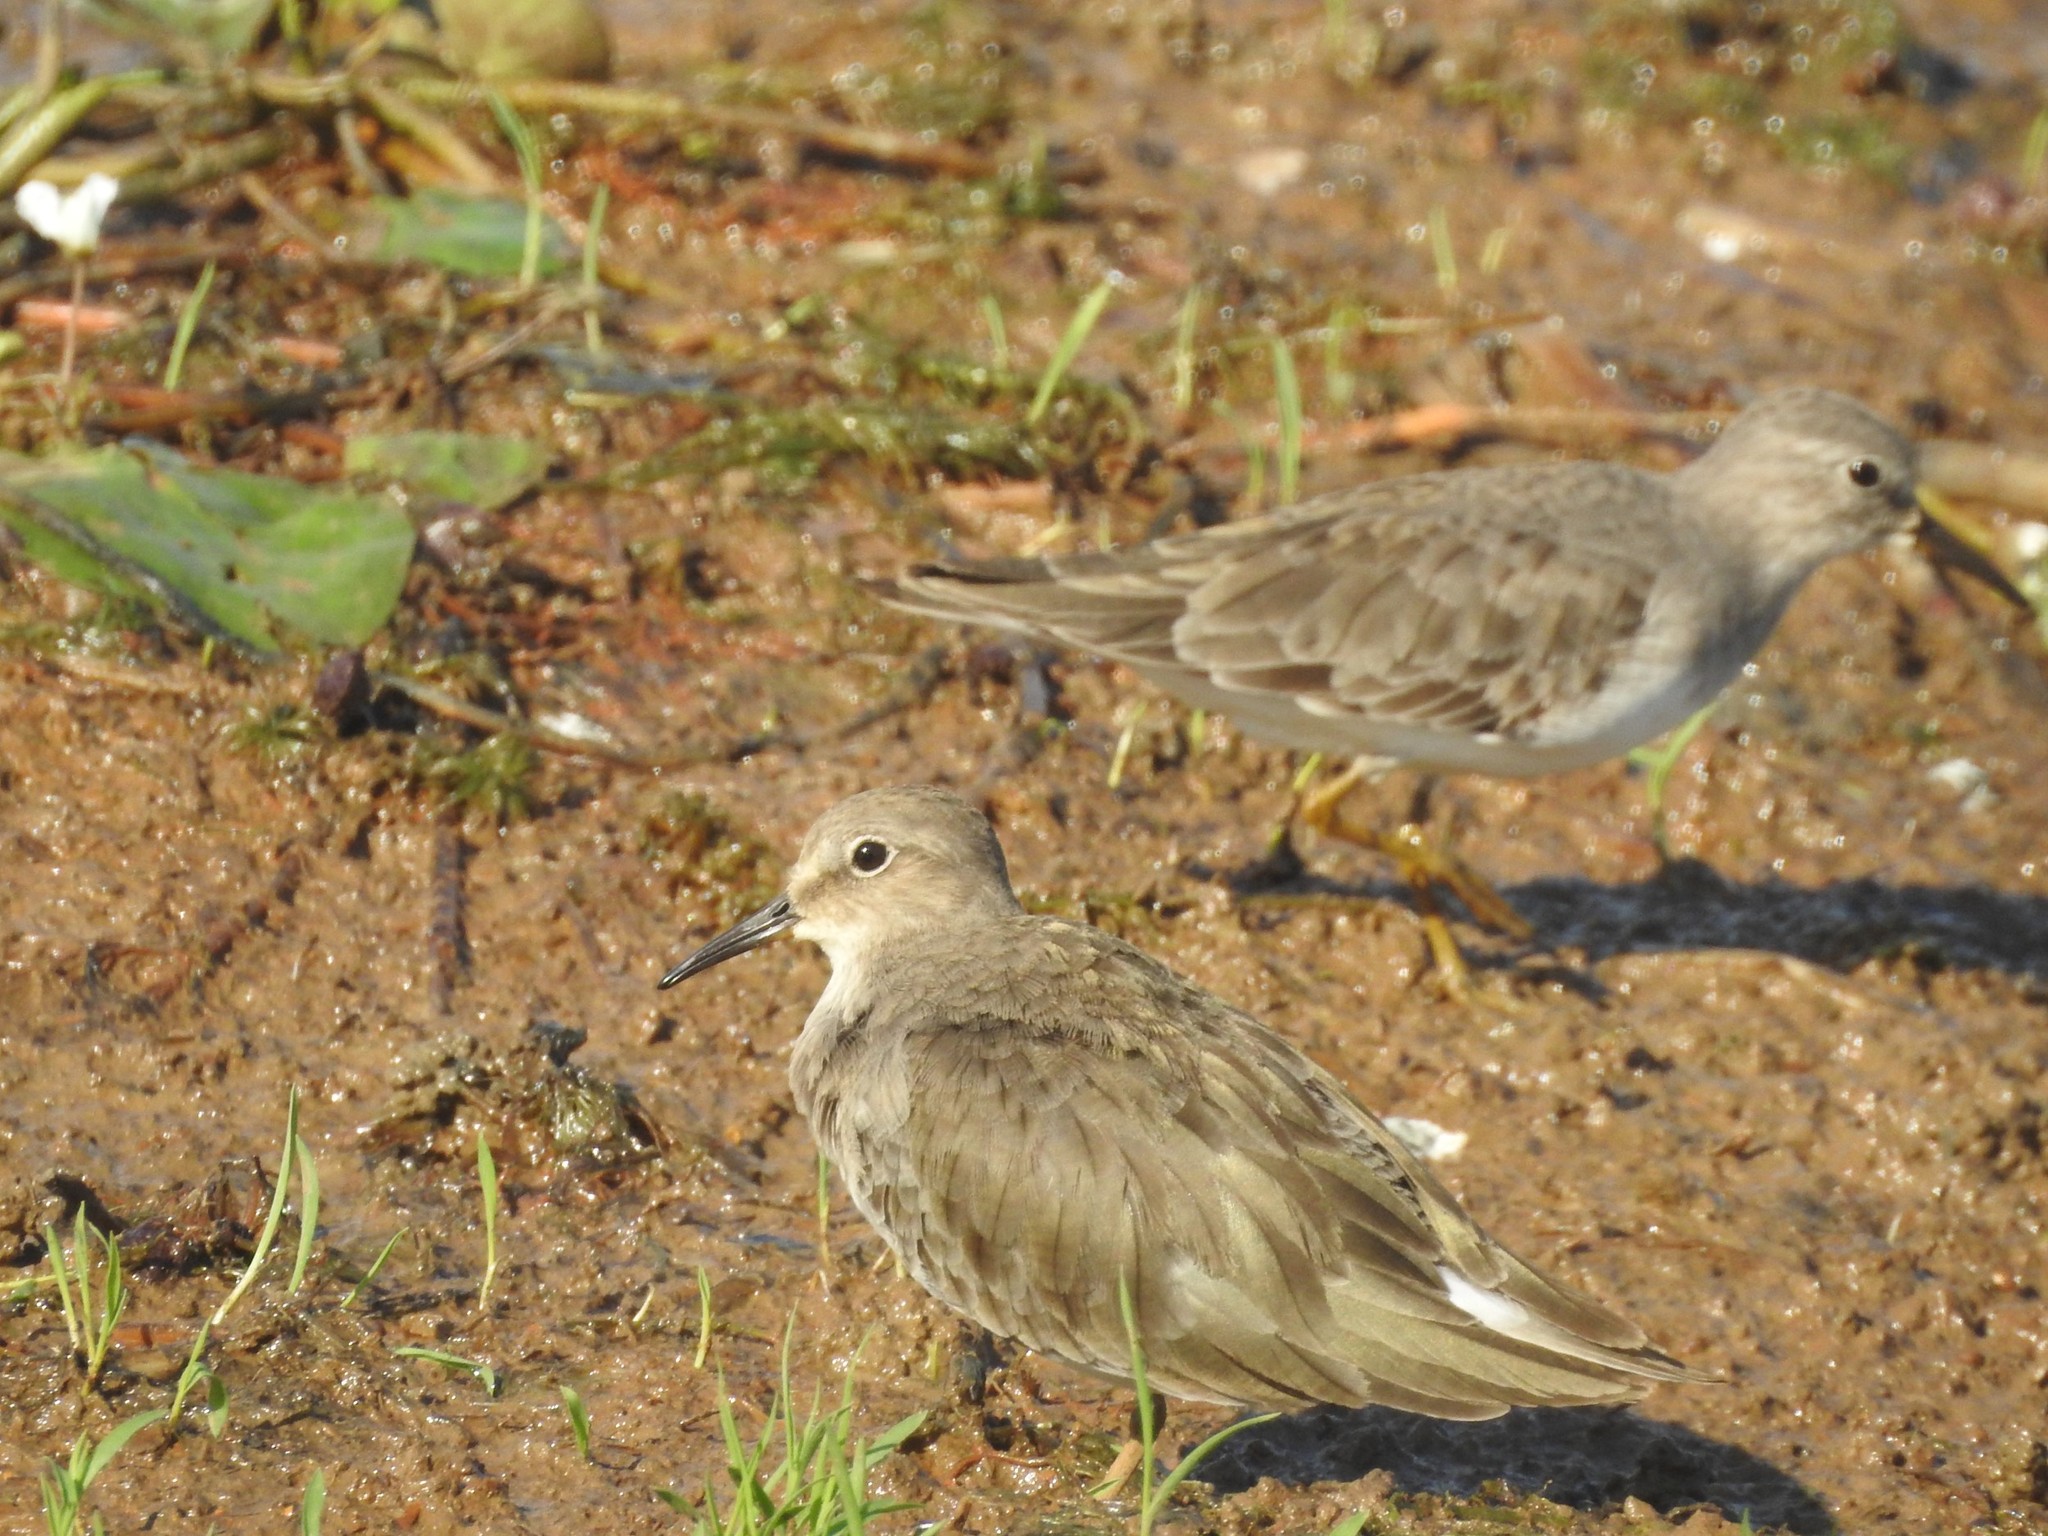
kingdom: Animalia
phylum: Chordata
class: Aves
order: Charadriiformes
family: Scolopacidae
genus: Calidris
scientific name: Calidris temminckii
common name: Temminck's stint
